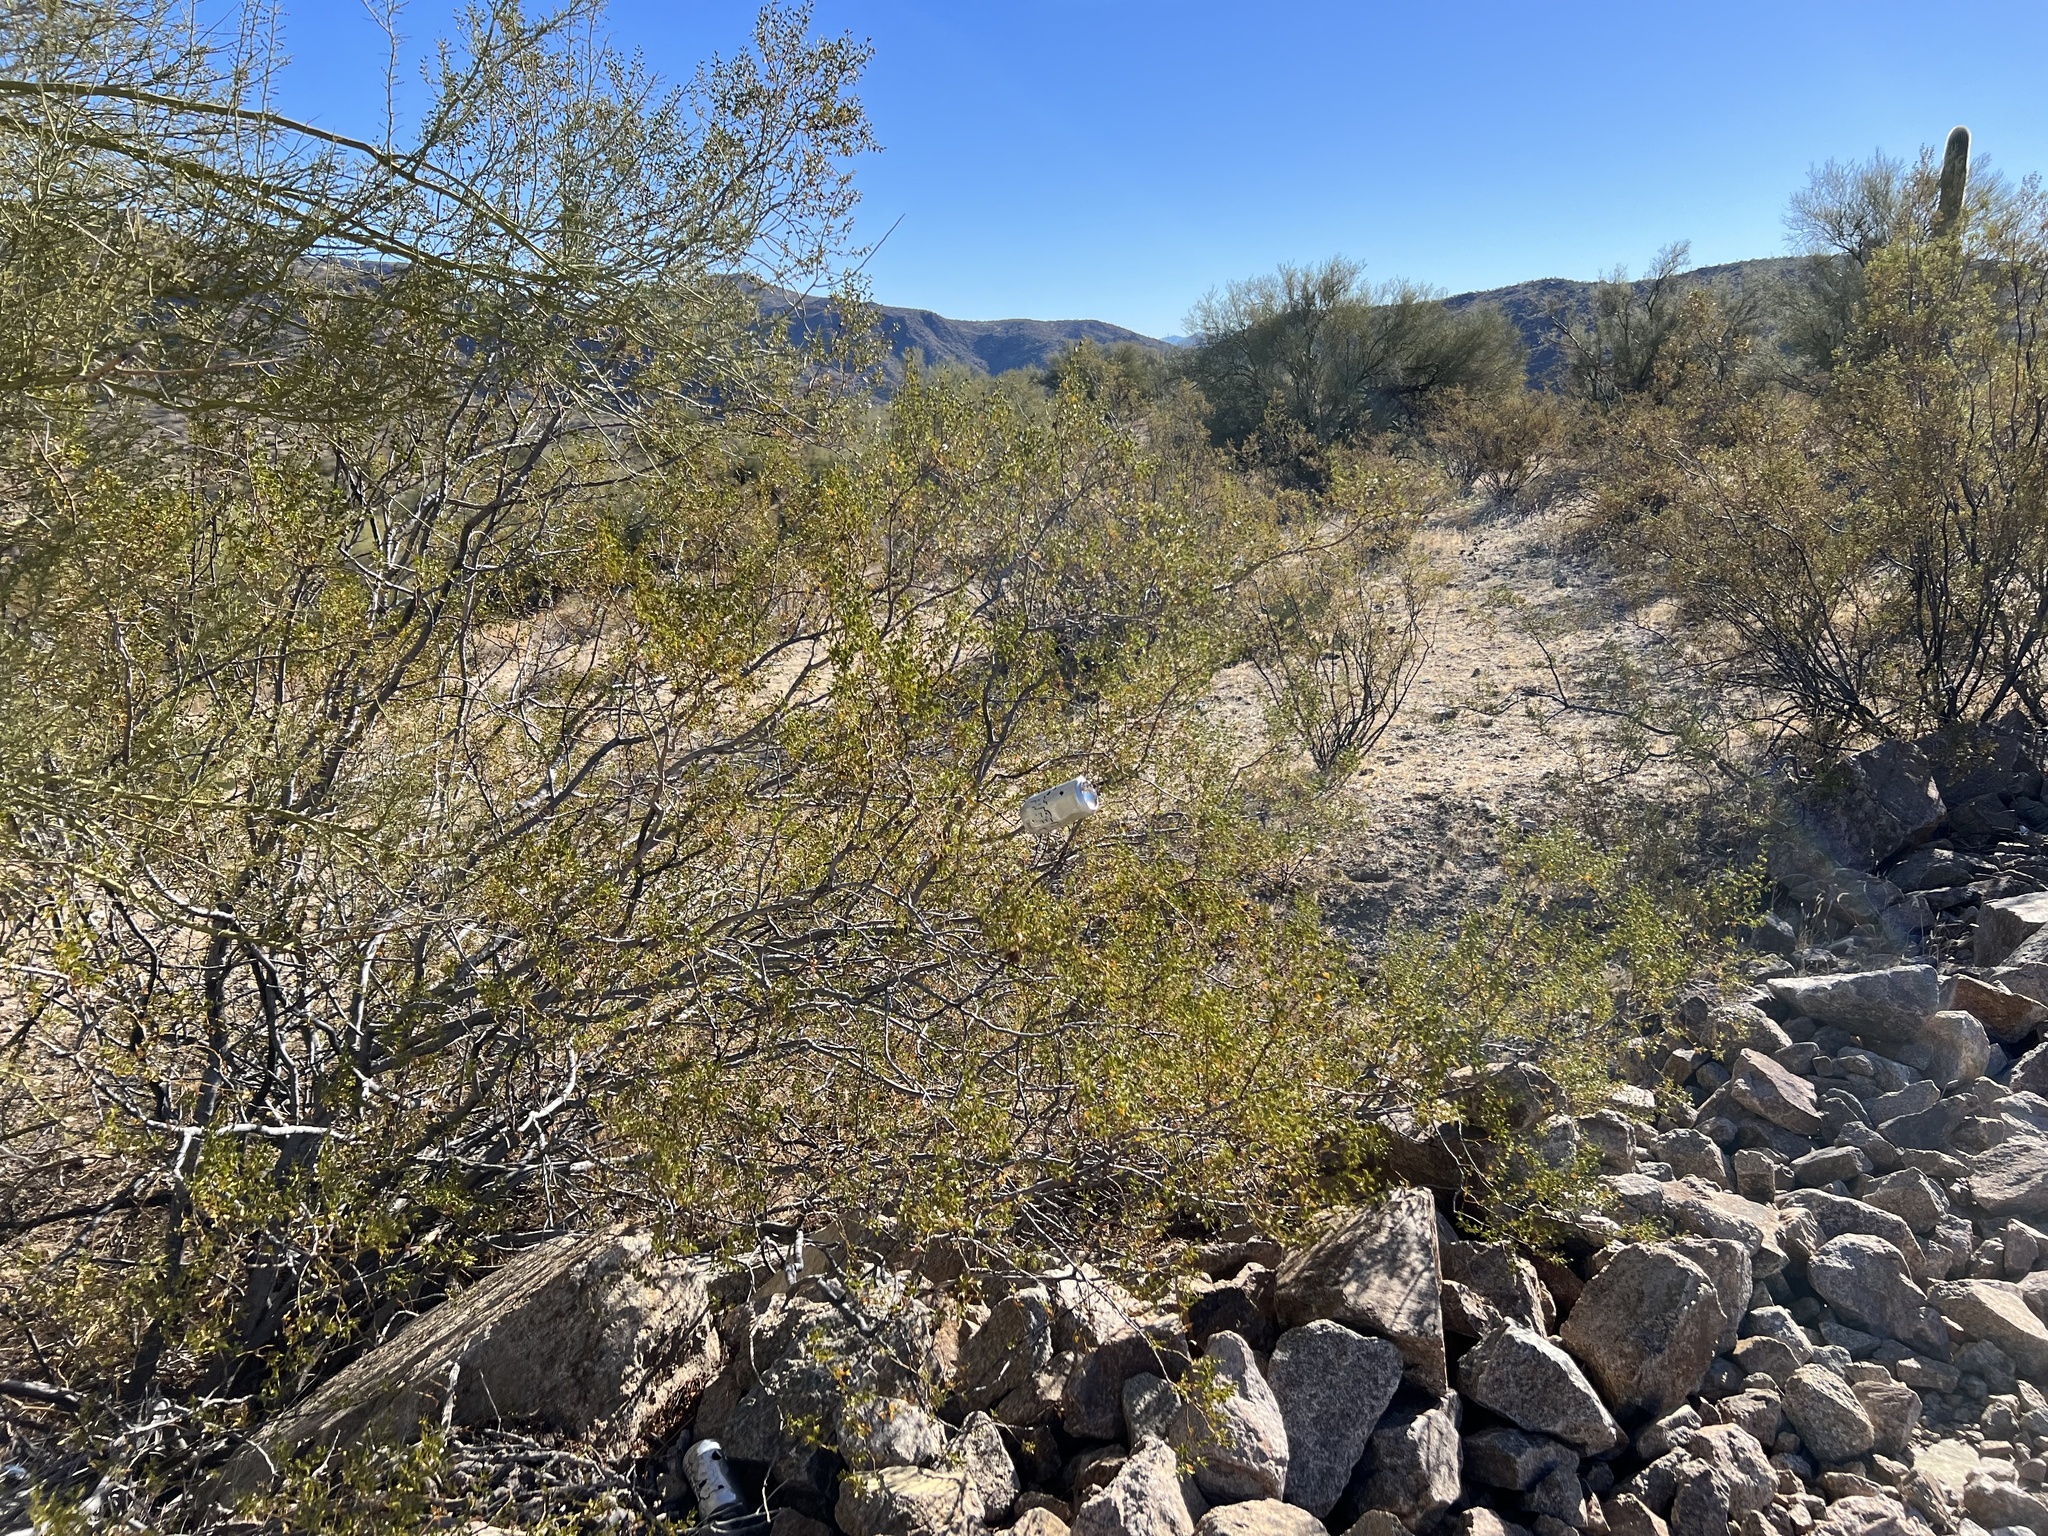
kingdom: Plantae
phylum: Tracheophyta
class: Magnoliopsida
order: Zygophyllales
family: Zygophyllaceae
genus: Larrea
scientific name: Larrea tridentata
